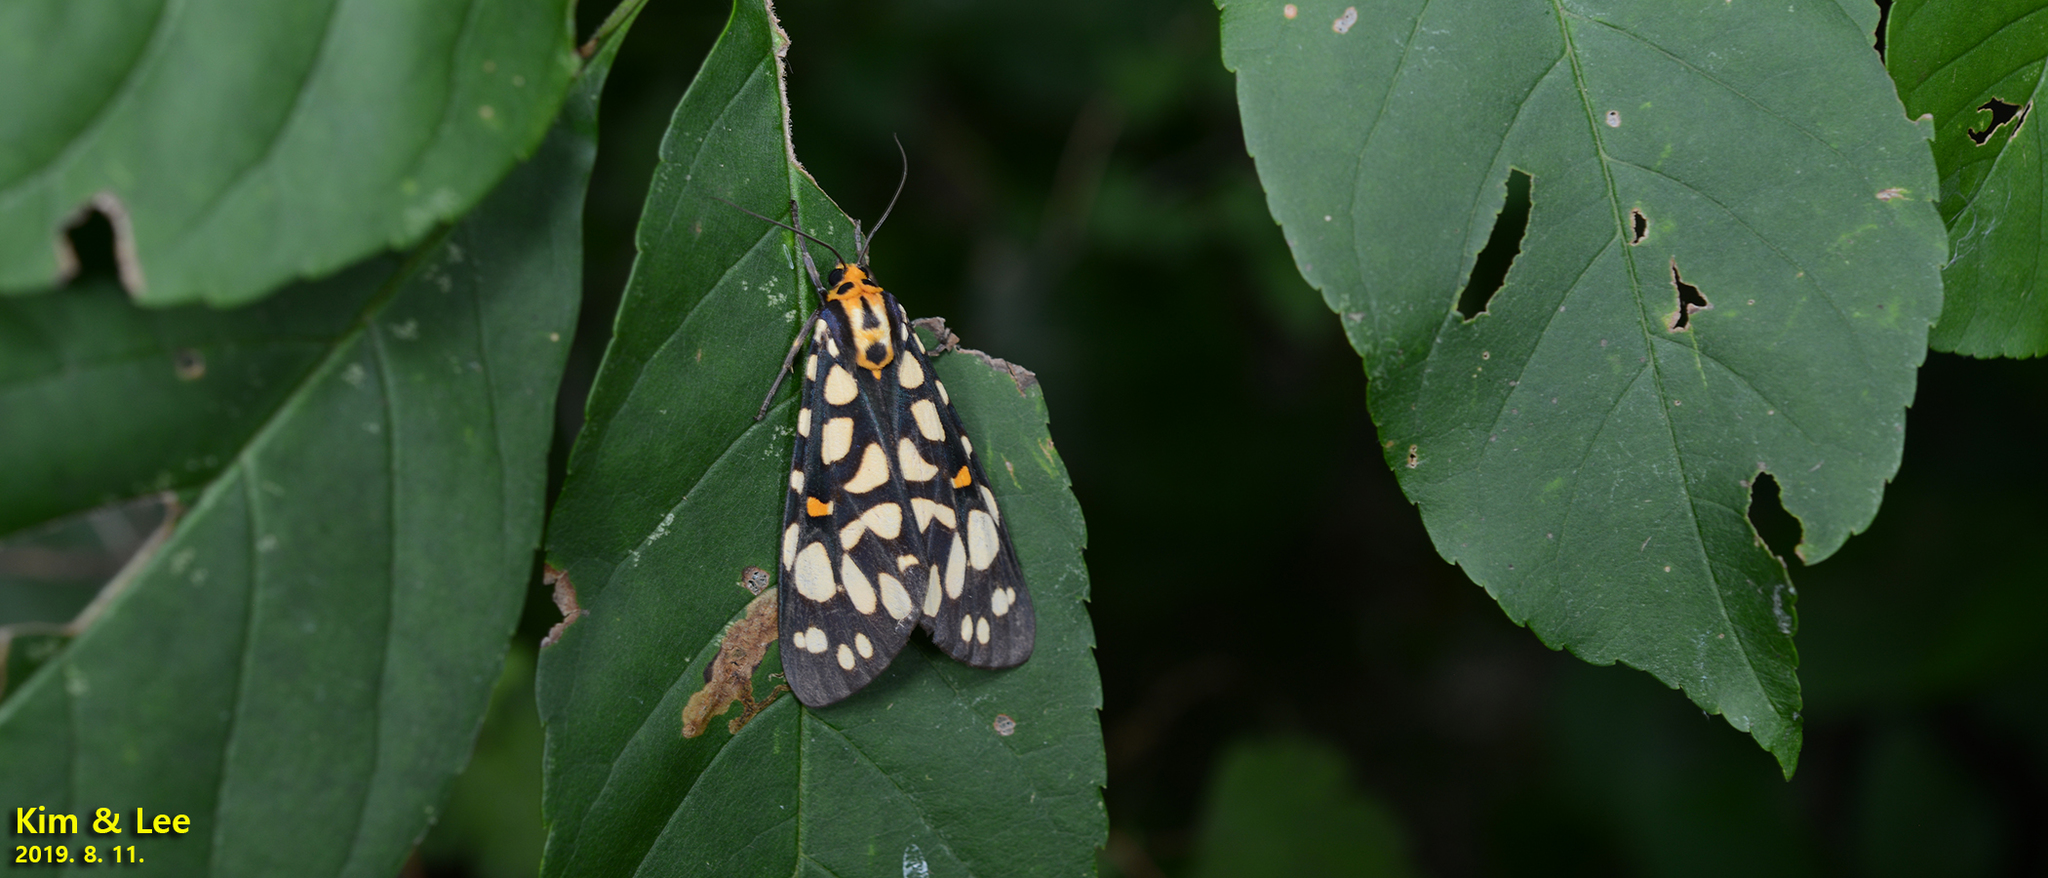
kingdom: Animalia
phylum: Arthropoda
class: Insecta
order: Lepidoptera
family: Erebidae
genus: Aglaomorpha
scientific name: Aglaomorpha histrio
